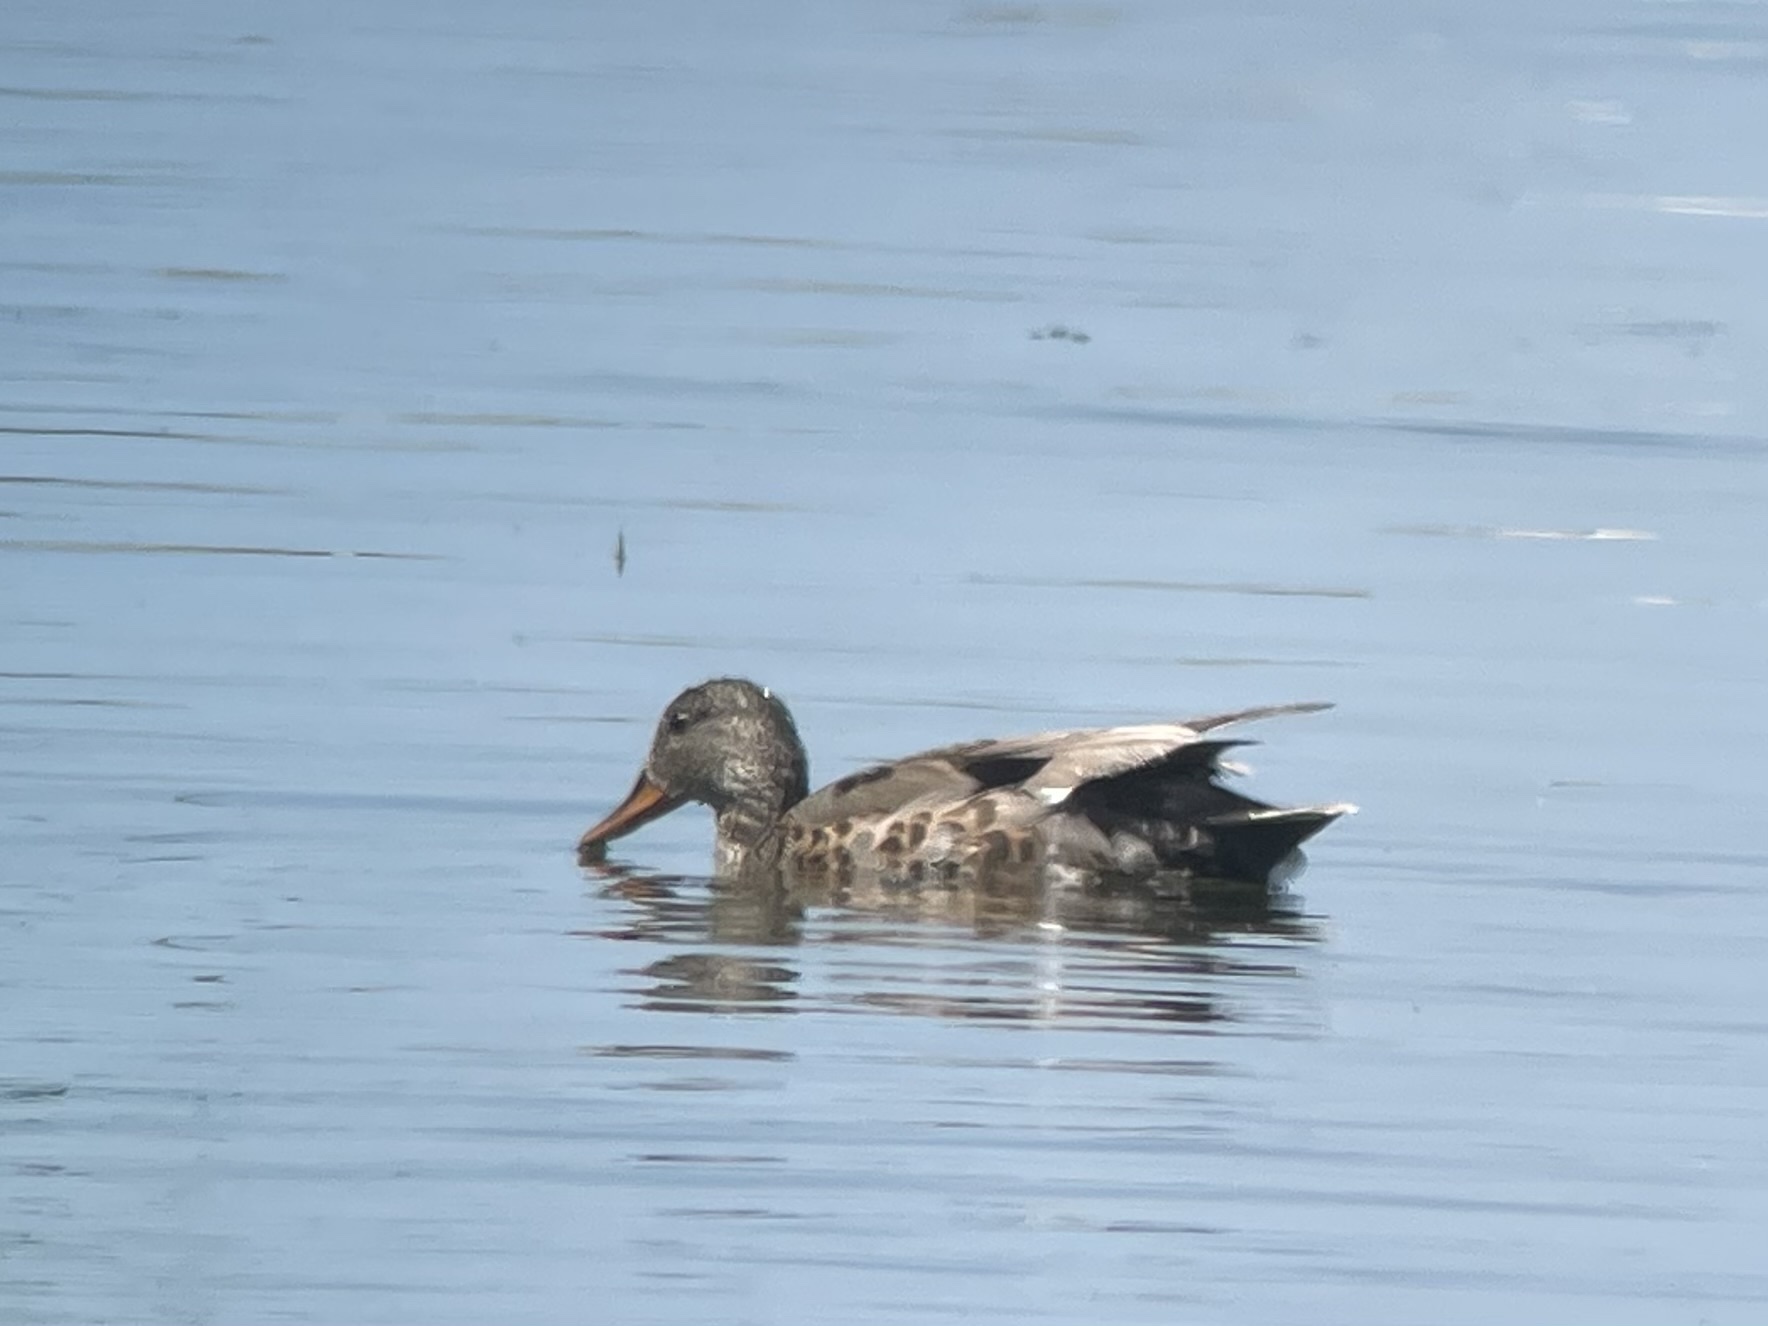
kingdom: Animalia
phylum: Chordata
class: Aves
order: Anseriformes
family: Anatidae
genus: Mareca
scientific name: Mareca strepera
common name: Gadwall
